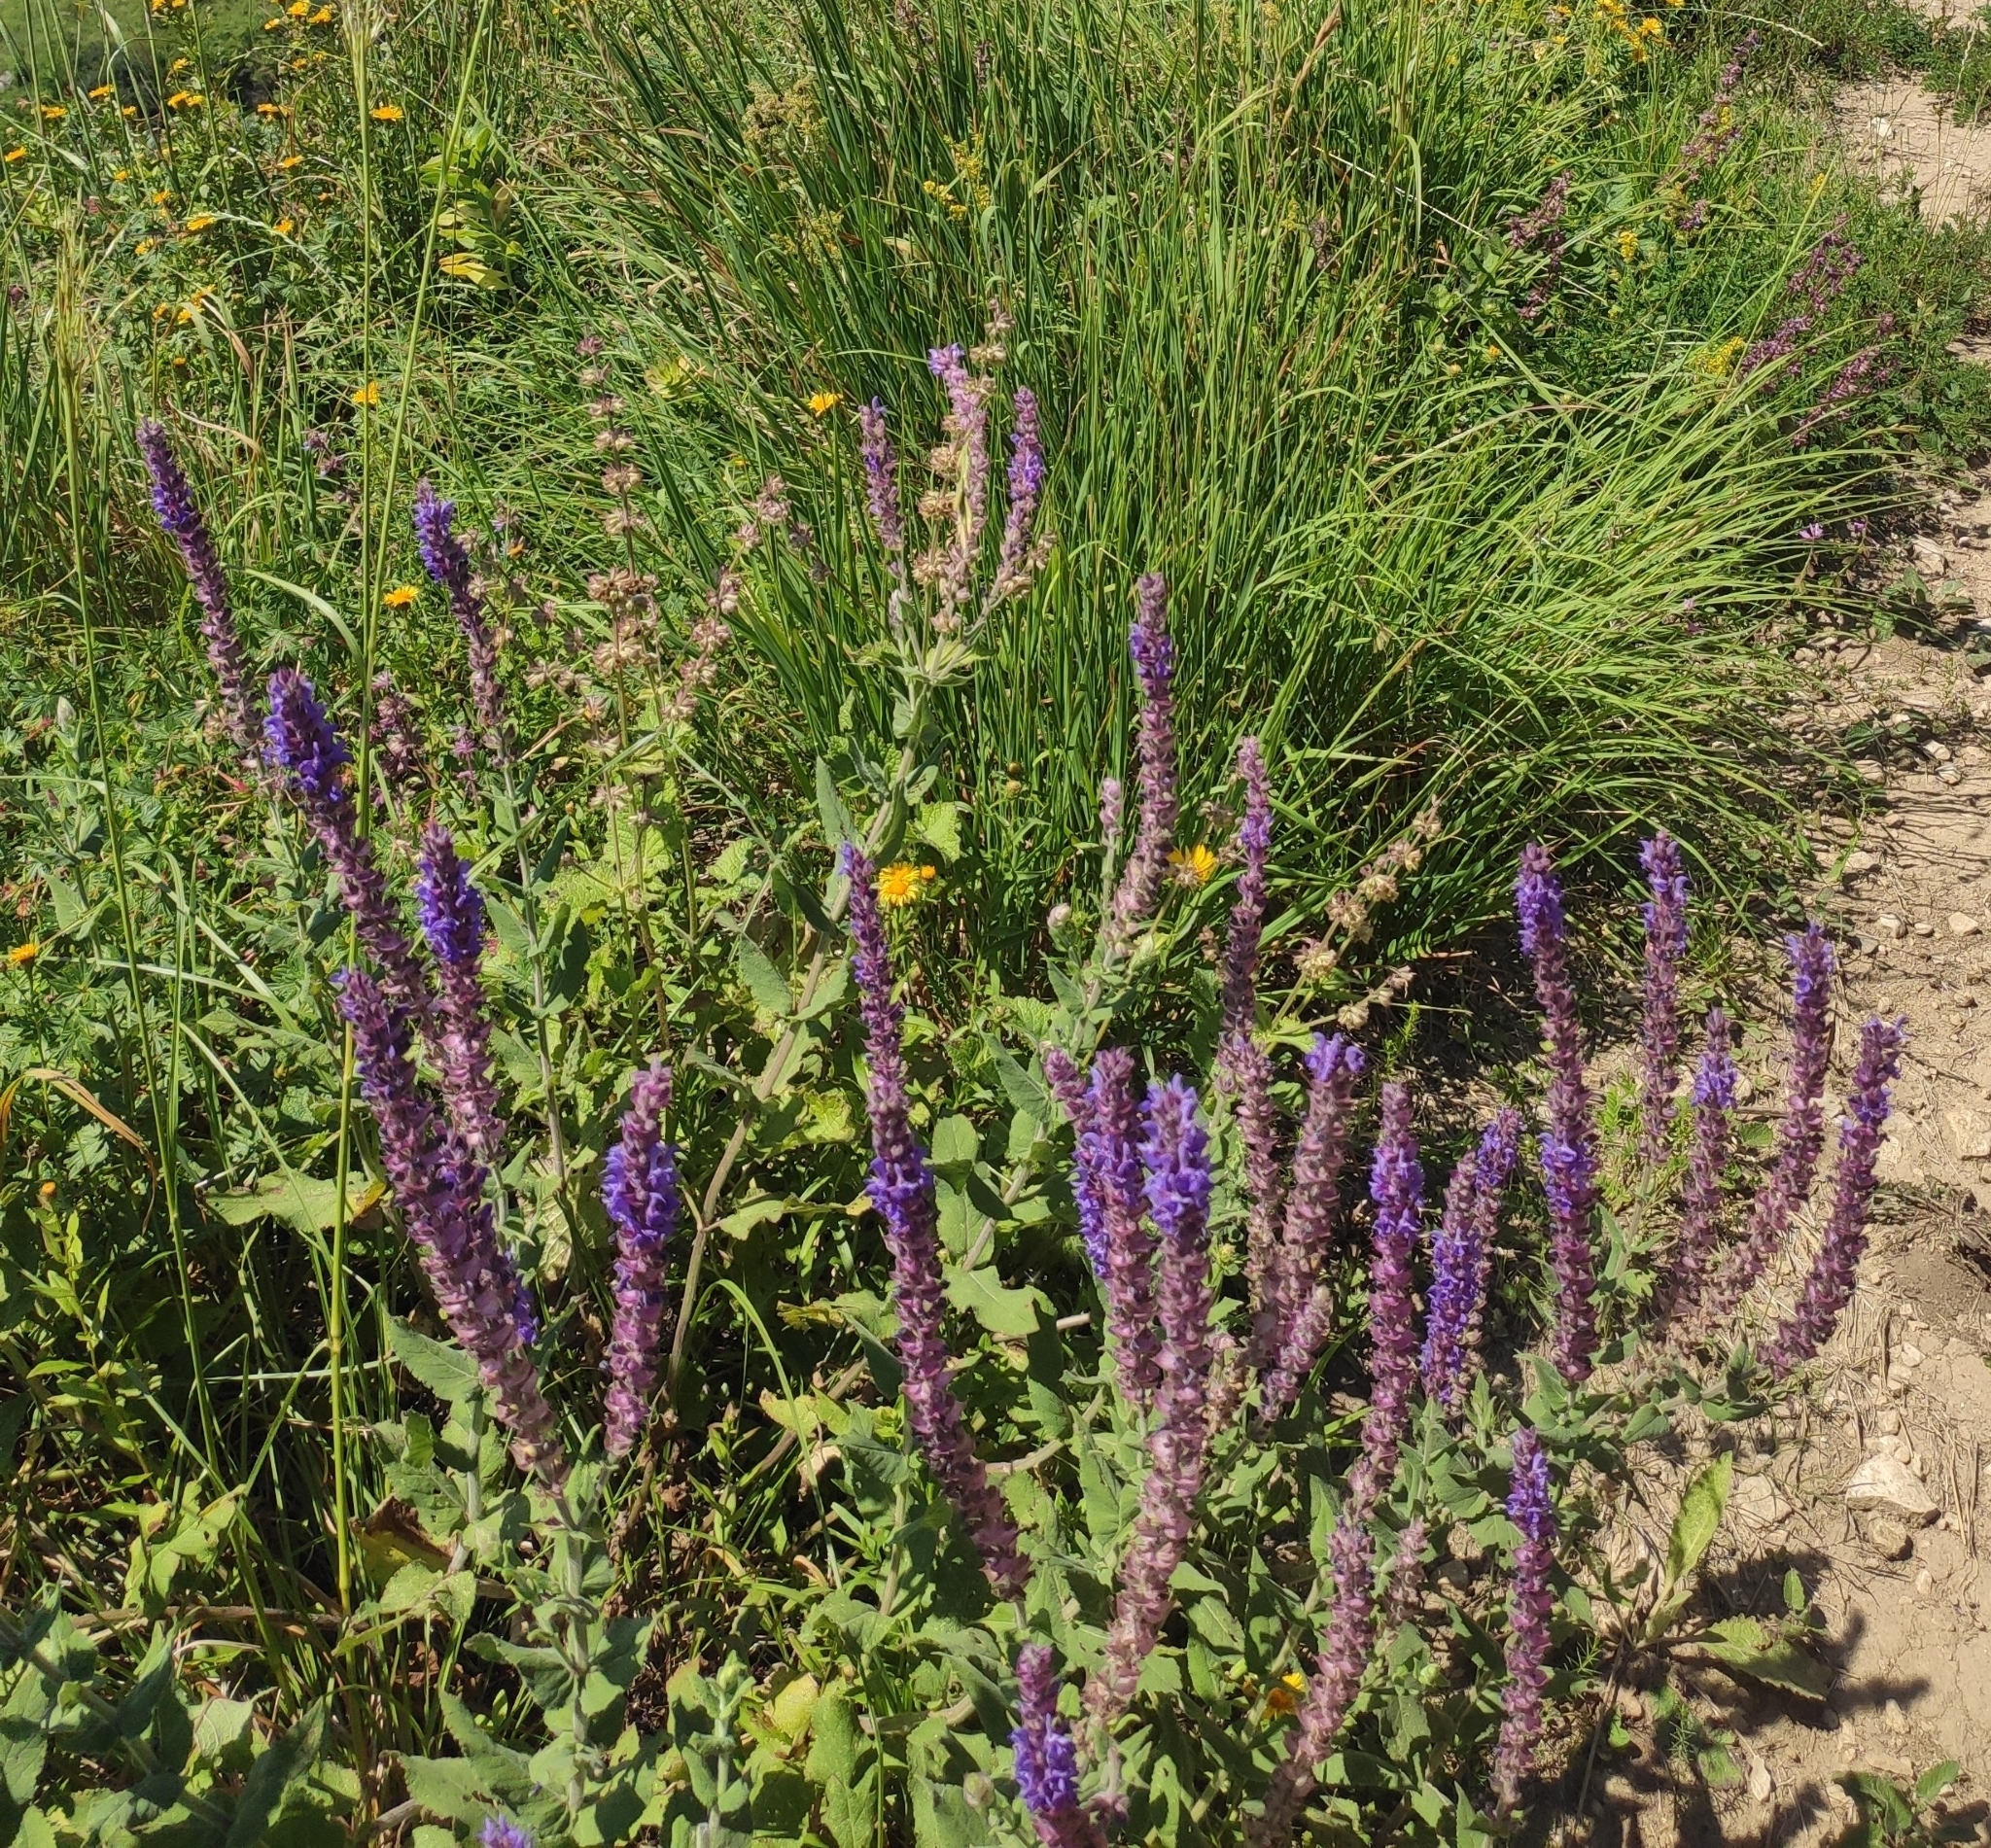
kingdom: Plantae
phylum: Tracheophyta
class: Magnoliopsida
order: Lamiales
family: Lamiaceae
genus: Salvia
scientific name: Salvia nemorosa
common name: Balkan clary
